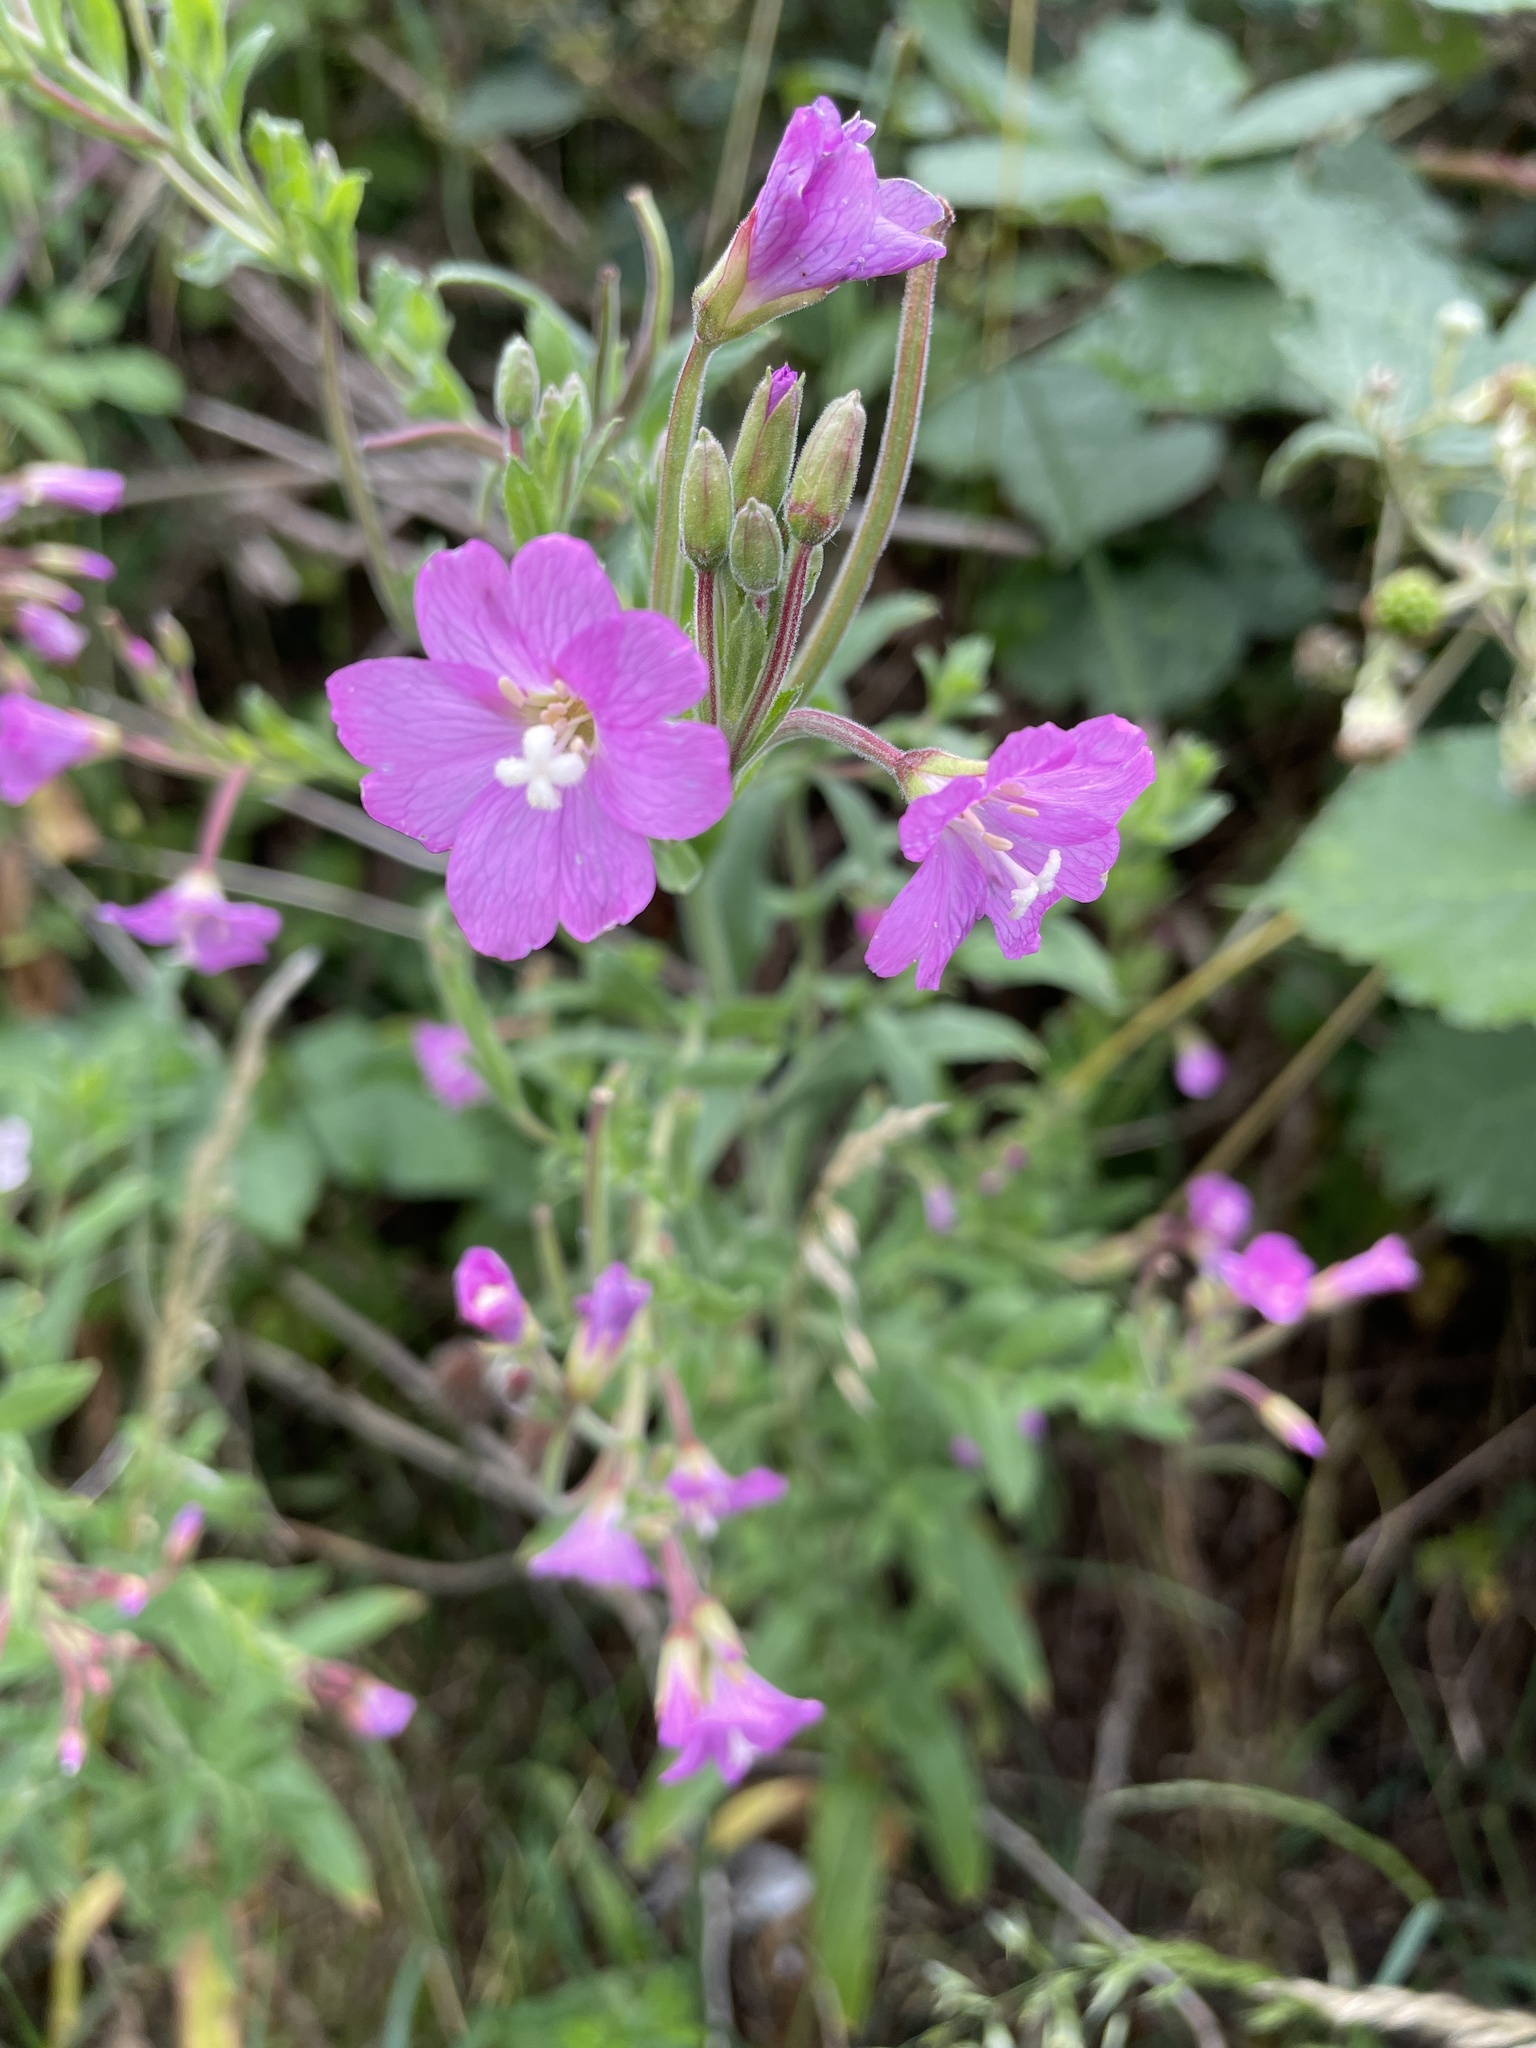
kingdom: Plantae
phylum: Tracheophyta
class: Magnoliopsida
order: Myrtales
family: Onagraceae
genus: Epilobium
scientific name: Epilobium hirsutum
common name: Great willowherb
